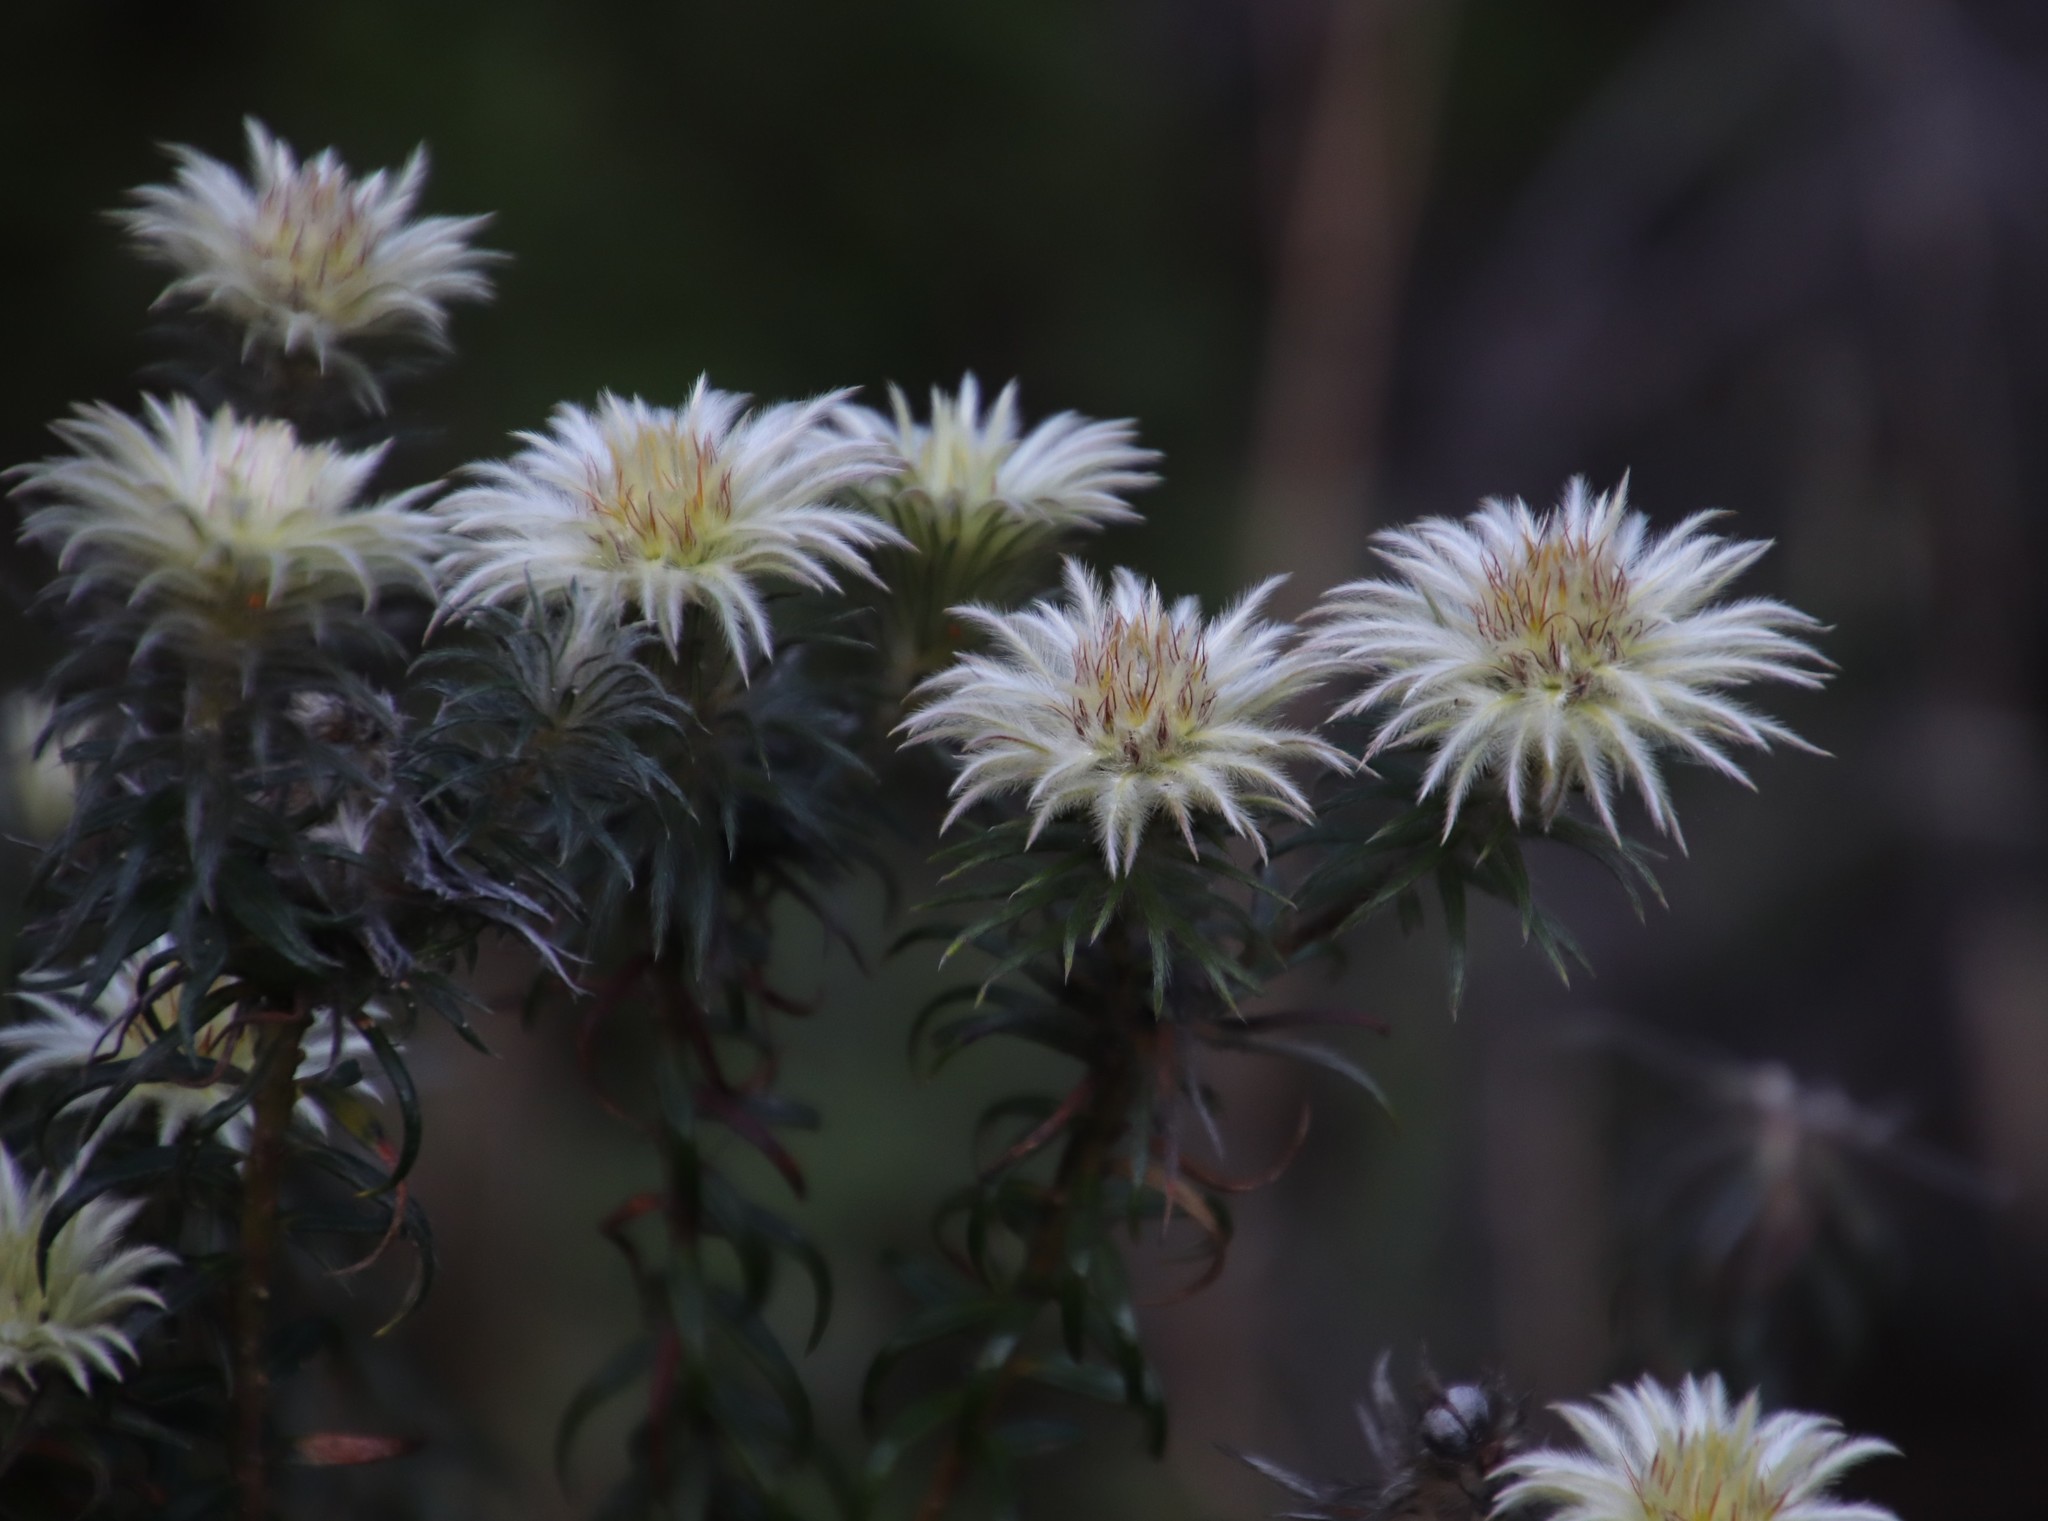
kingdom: Plantae
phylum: Tracheophyta
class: Magnoliopsida
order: Rosales
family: Rhamnaceae
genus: Phylica
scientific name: Phylica pubescens
